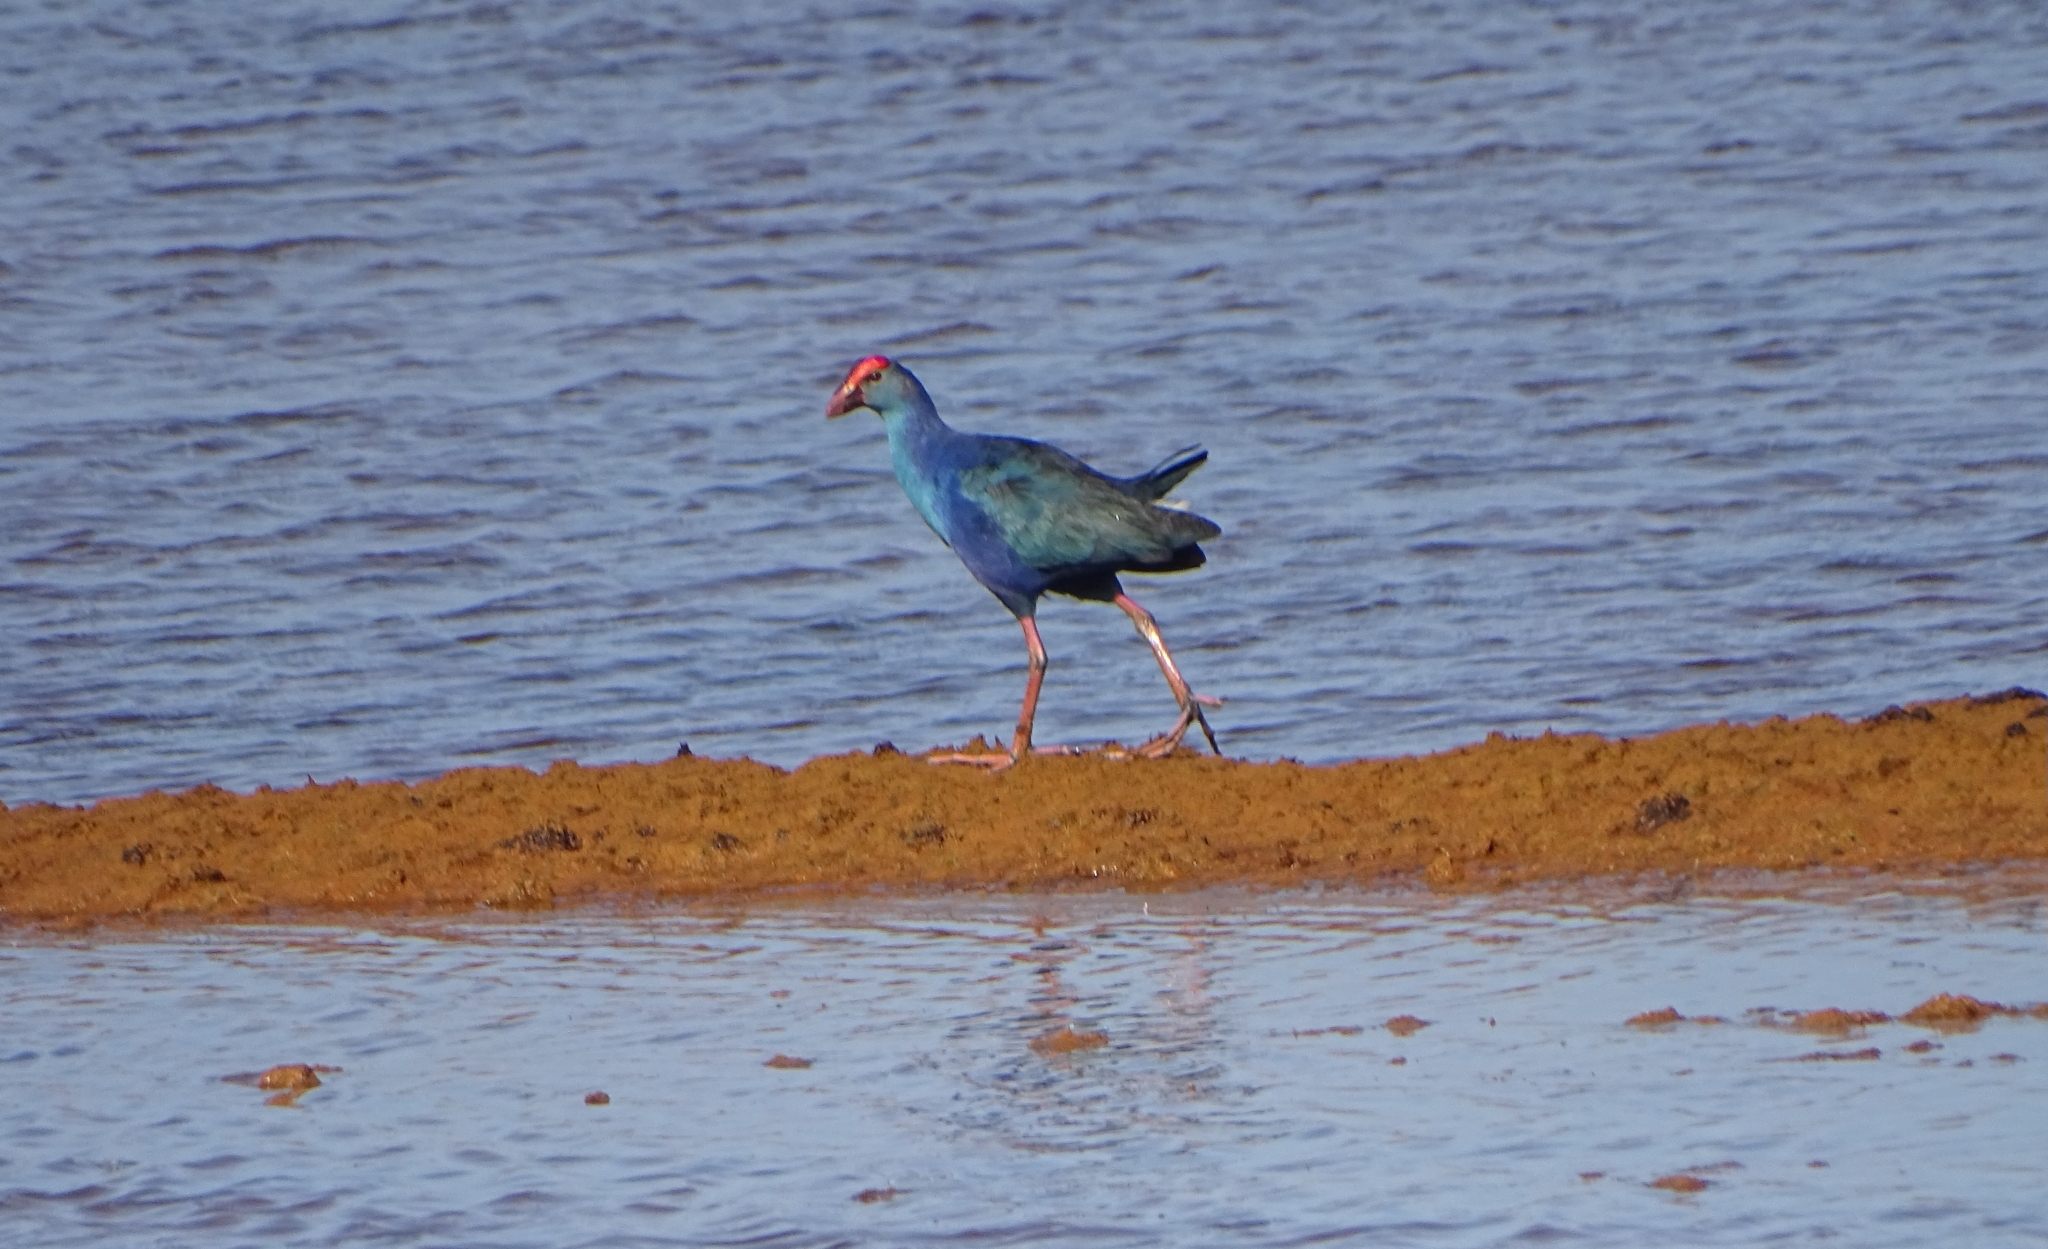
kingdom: Animalia
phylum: Chordata
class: Aves
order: Gruiformes
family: Rallidae
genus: Porphyrio
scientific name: Porphyrio porphyrio
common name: Purple swamphen
